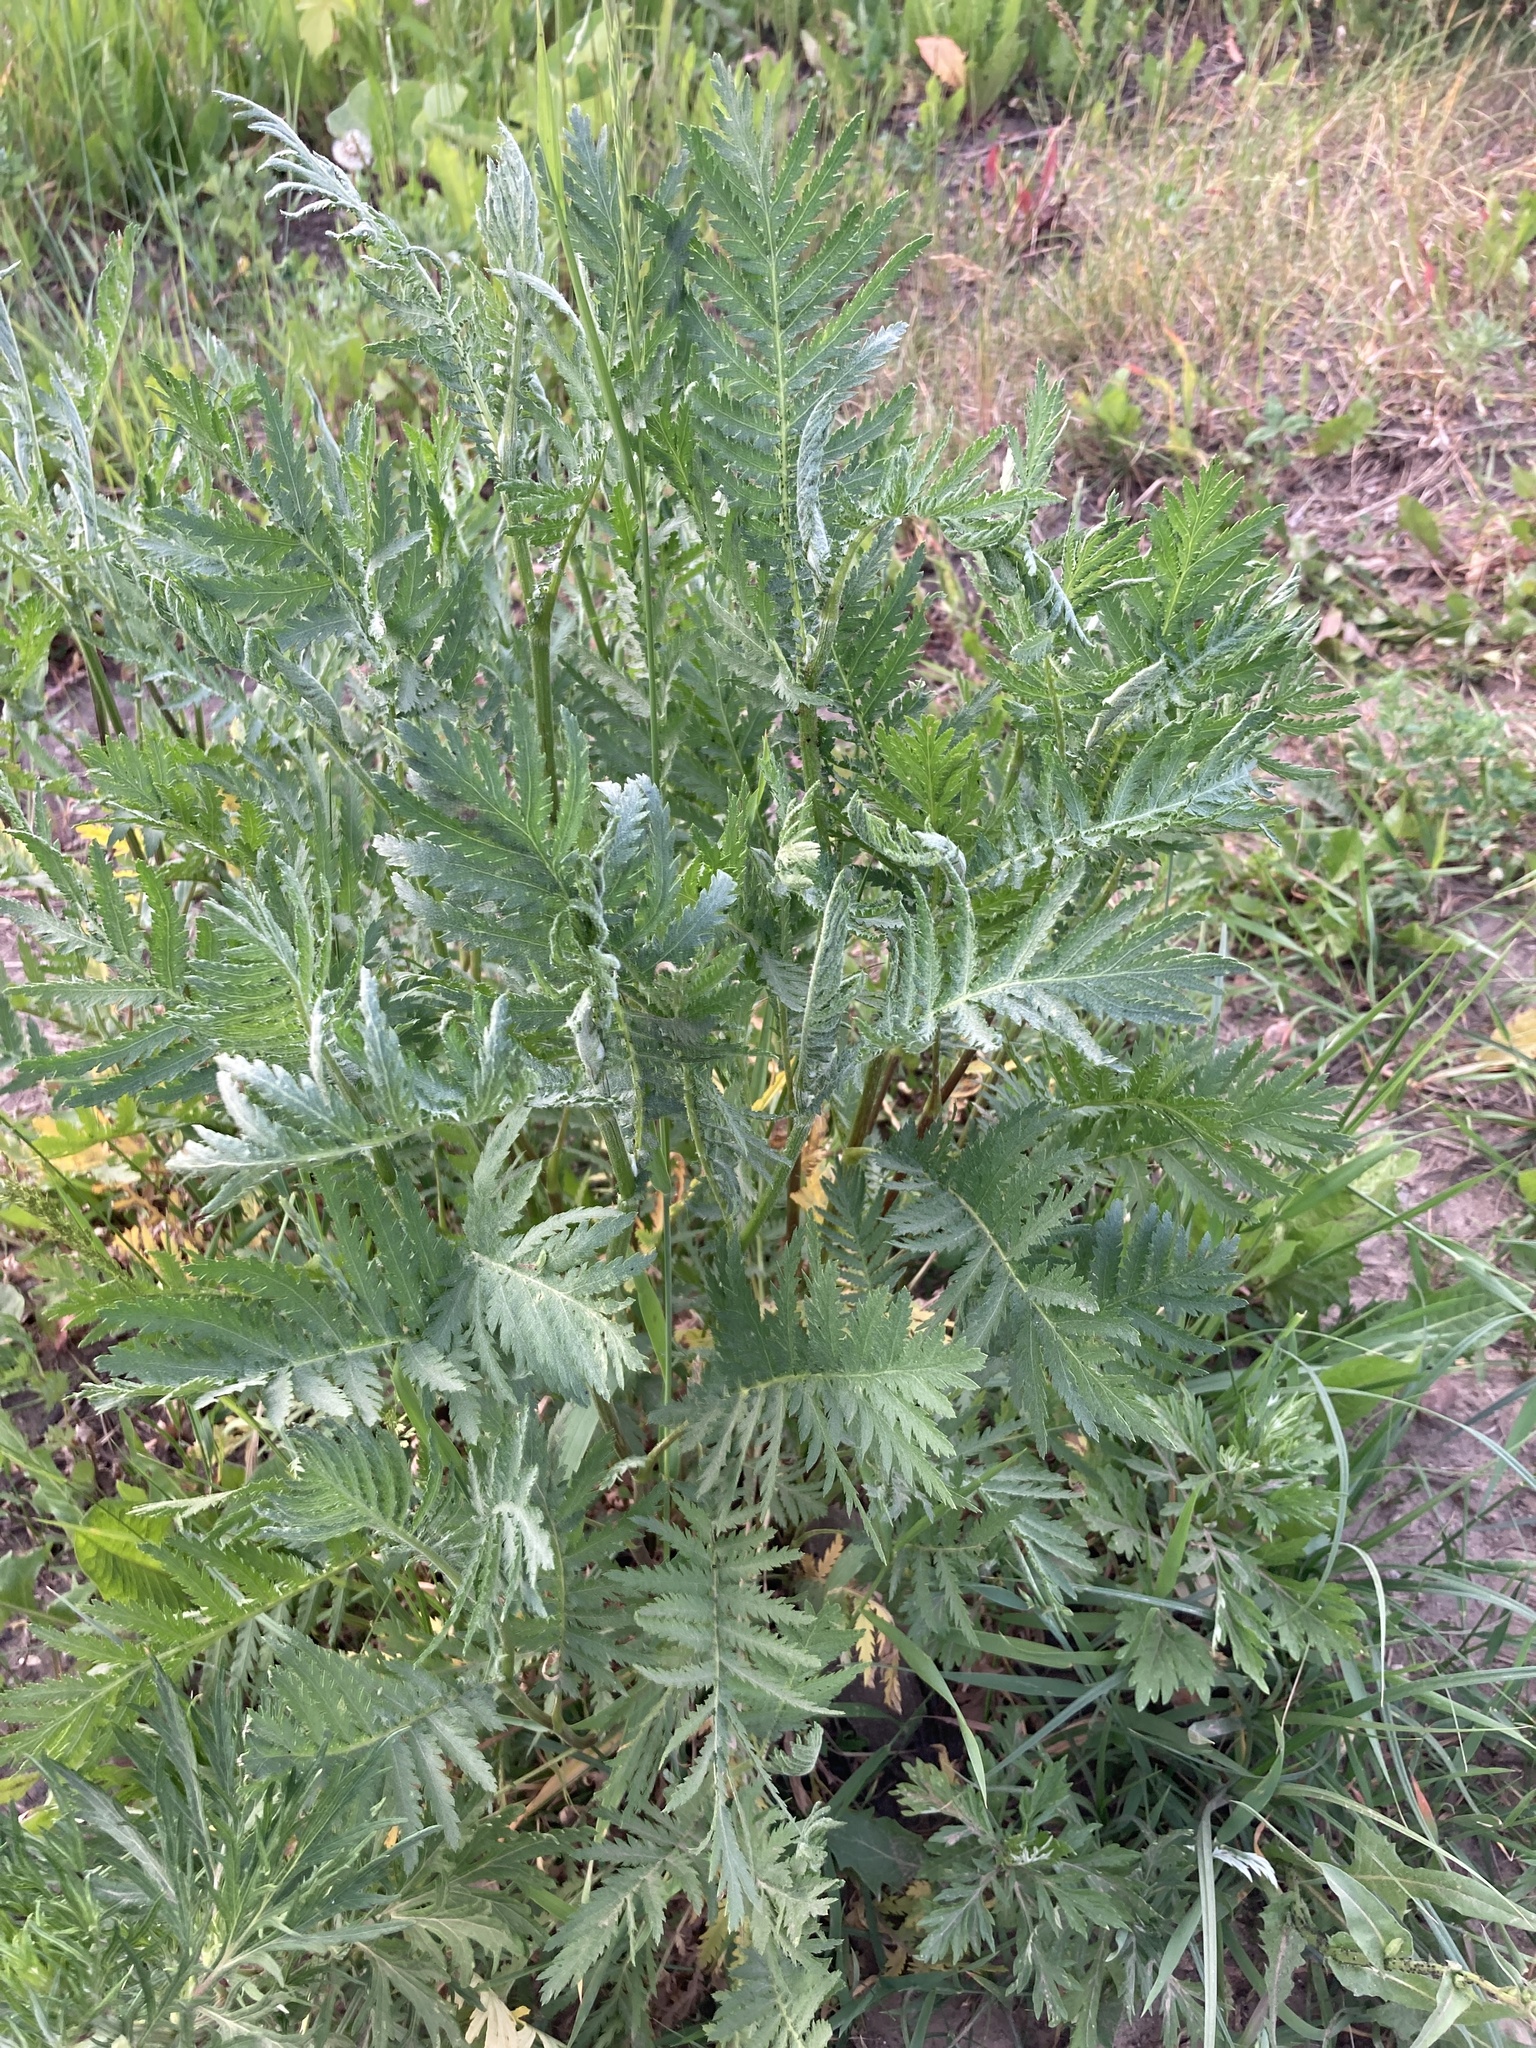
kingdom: Plantae
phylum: Tracheophyta
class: Magnoliopsida
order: Asterales
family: Asteraceae
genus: Tanacetum
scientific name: Tanacetum vulgare
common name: Common tansy
